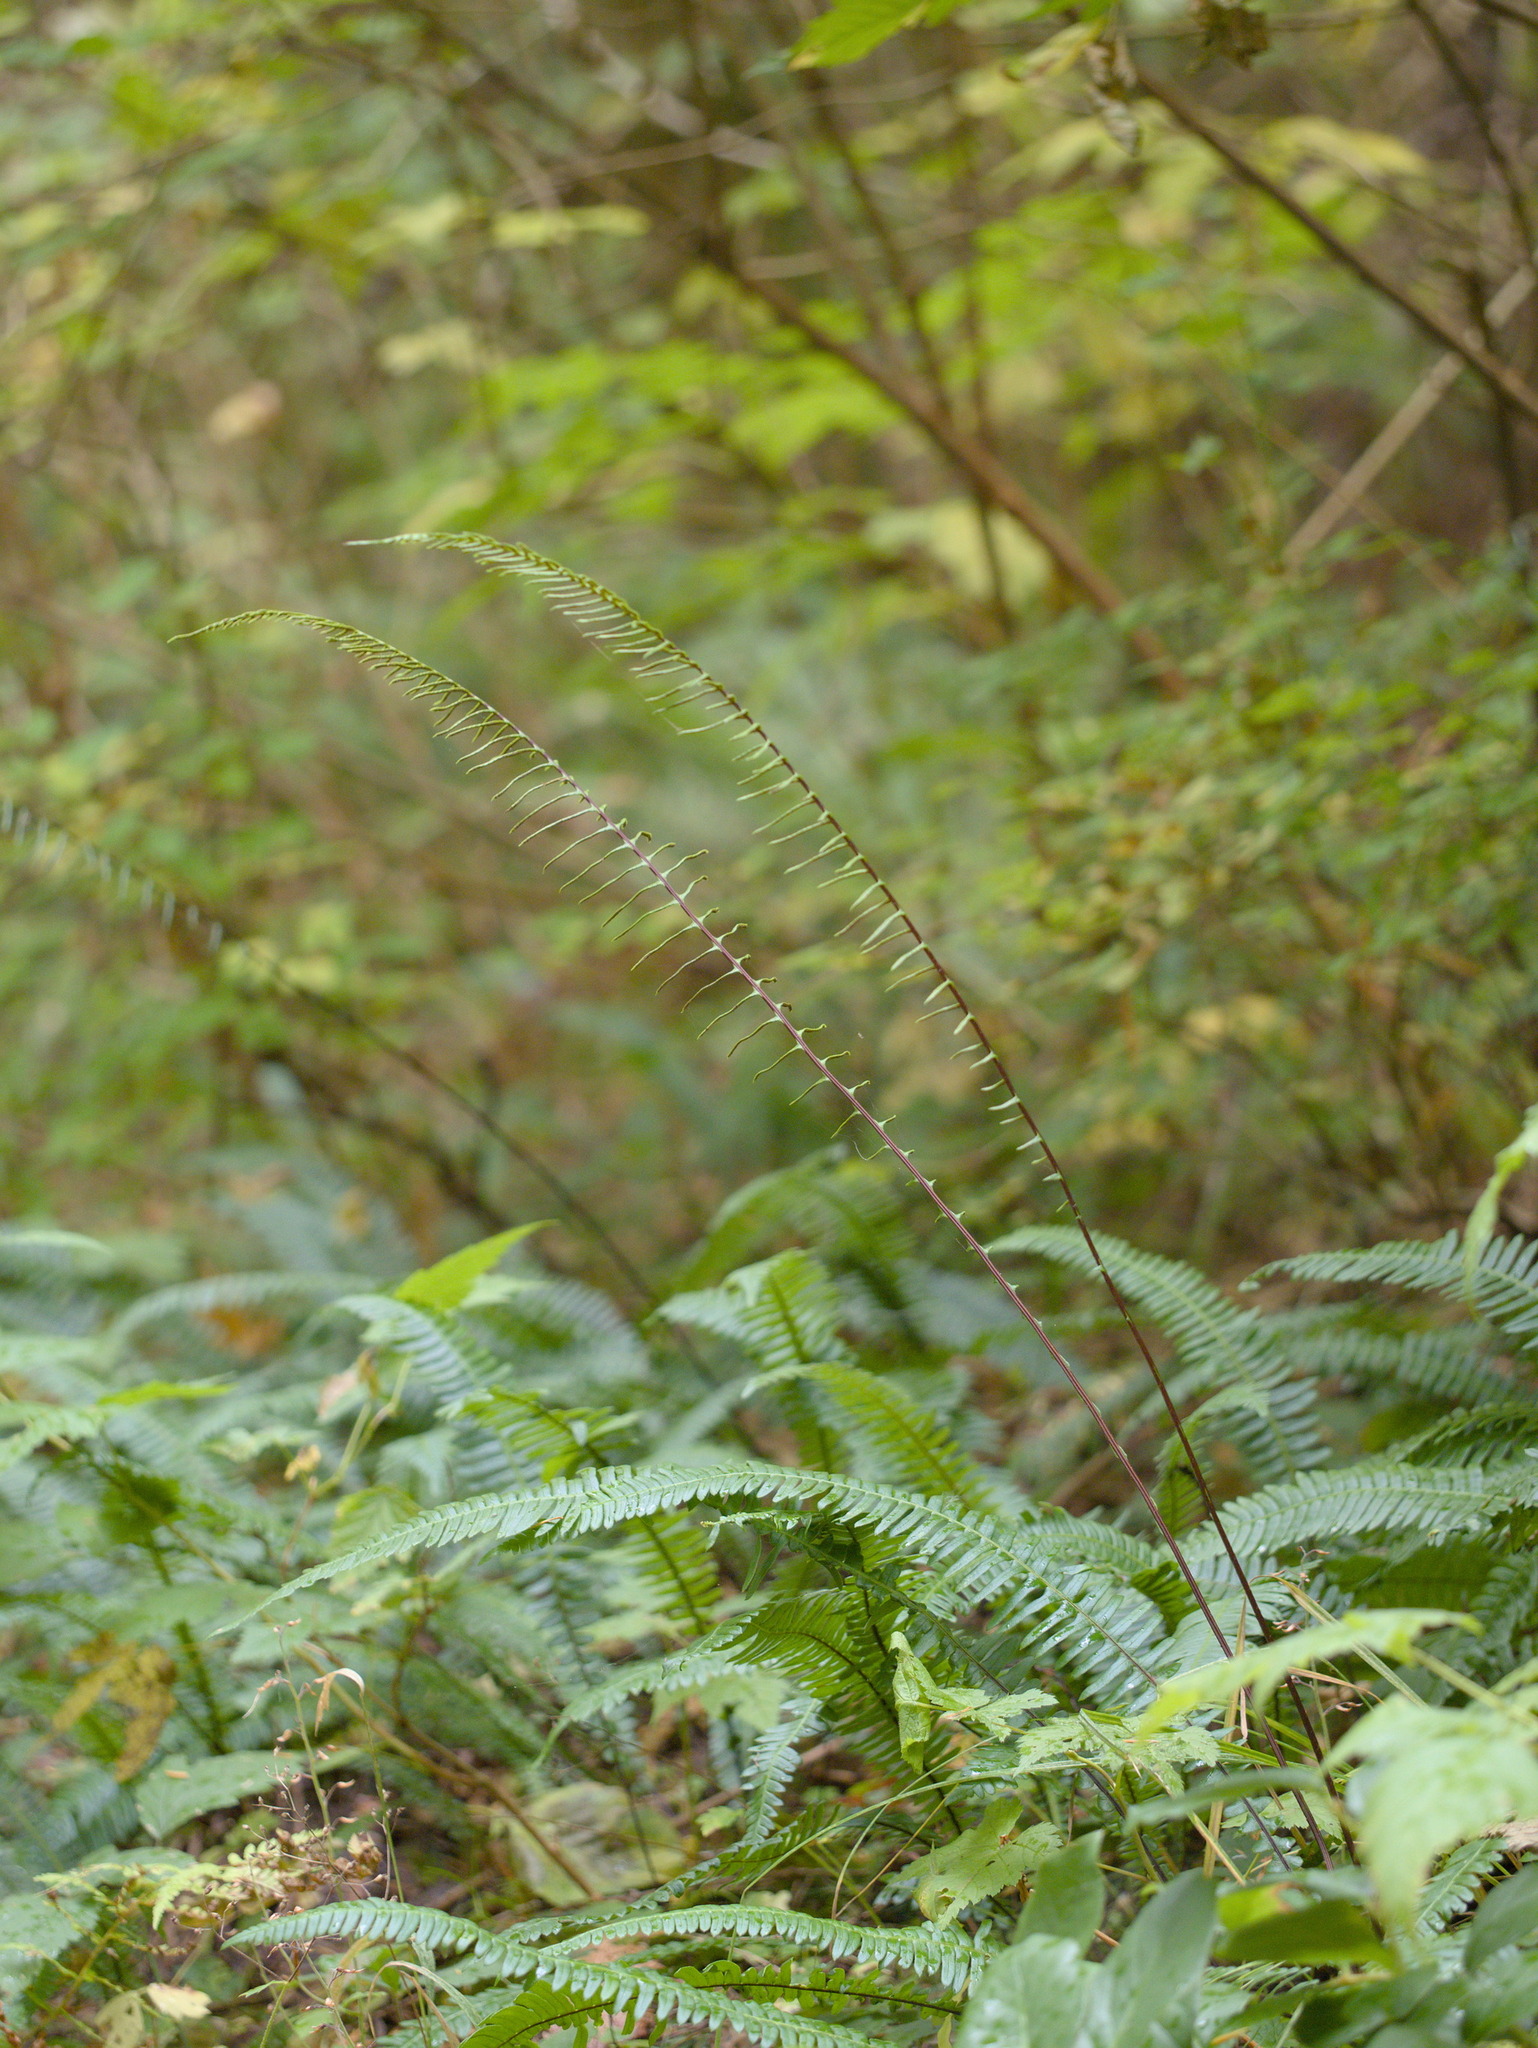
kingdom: Plantae
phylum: Tracheophyta
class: Polypodiopsida
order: Polypodiales
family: Blechnaceae
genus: Struthiopteris
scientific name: Struthiopteris spicant
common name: Deer fern
